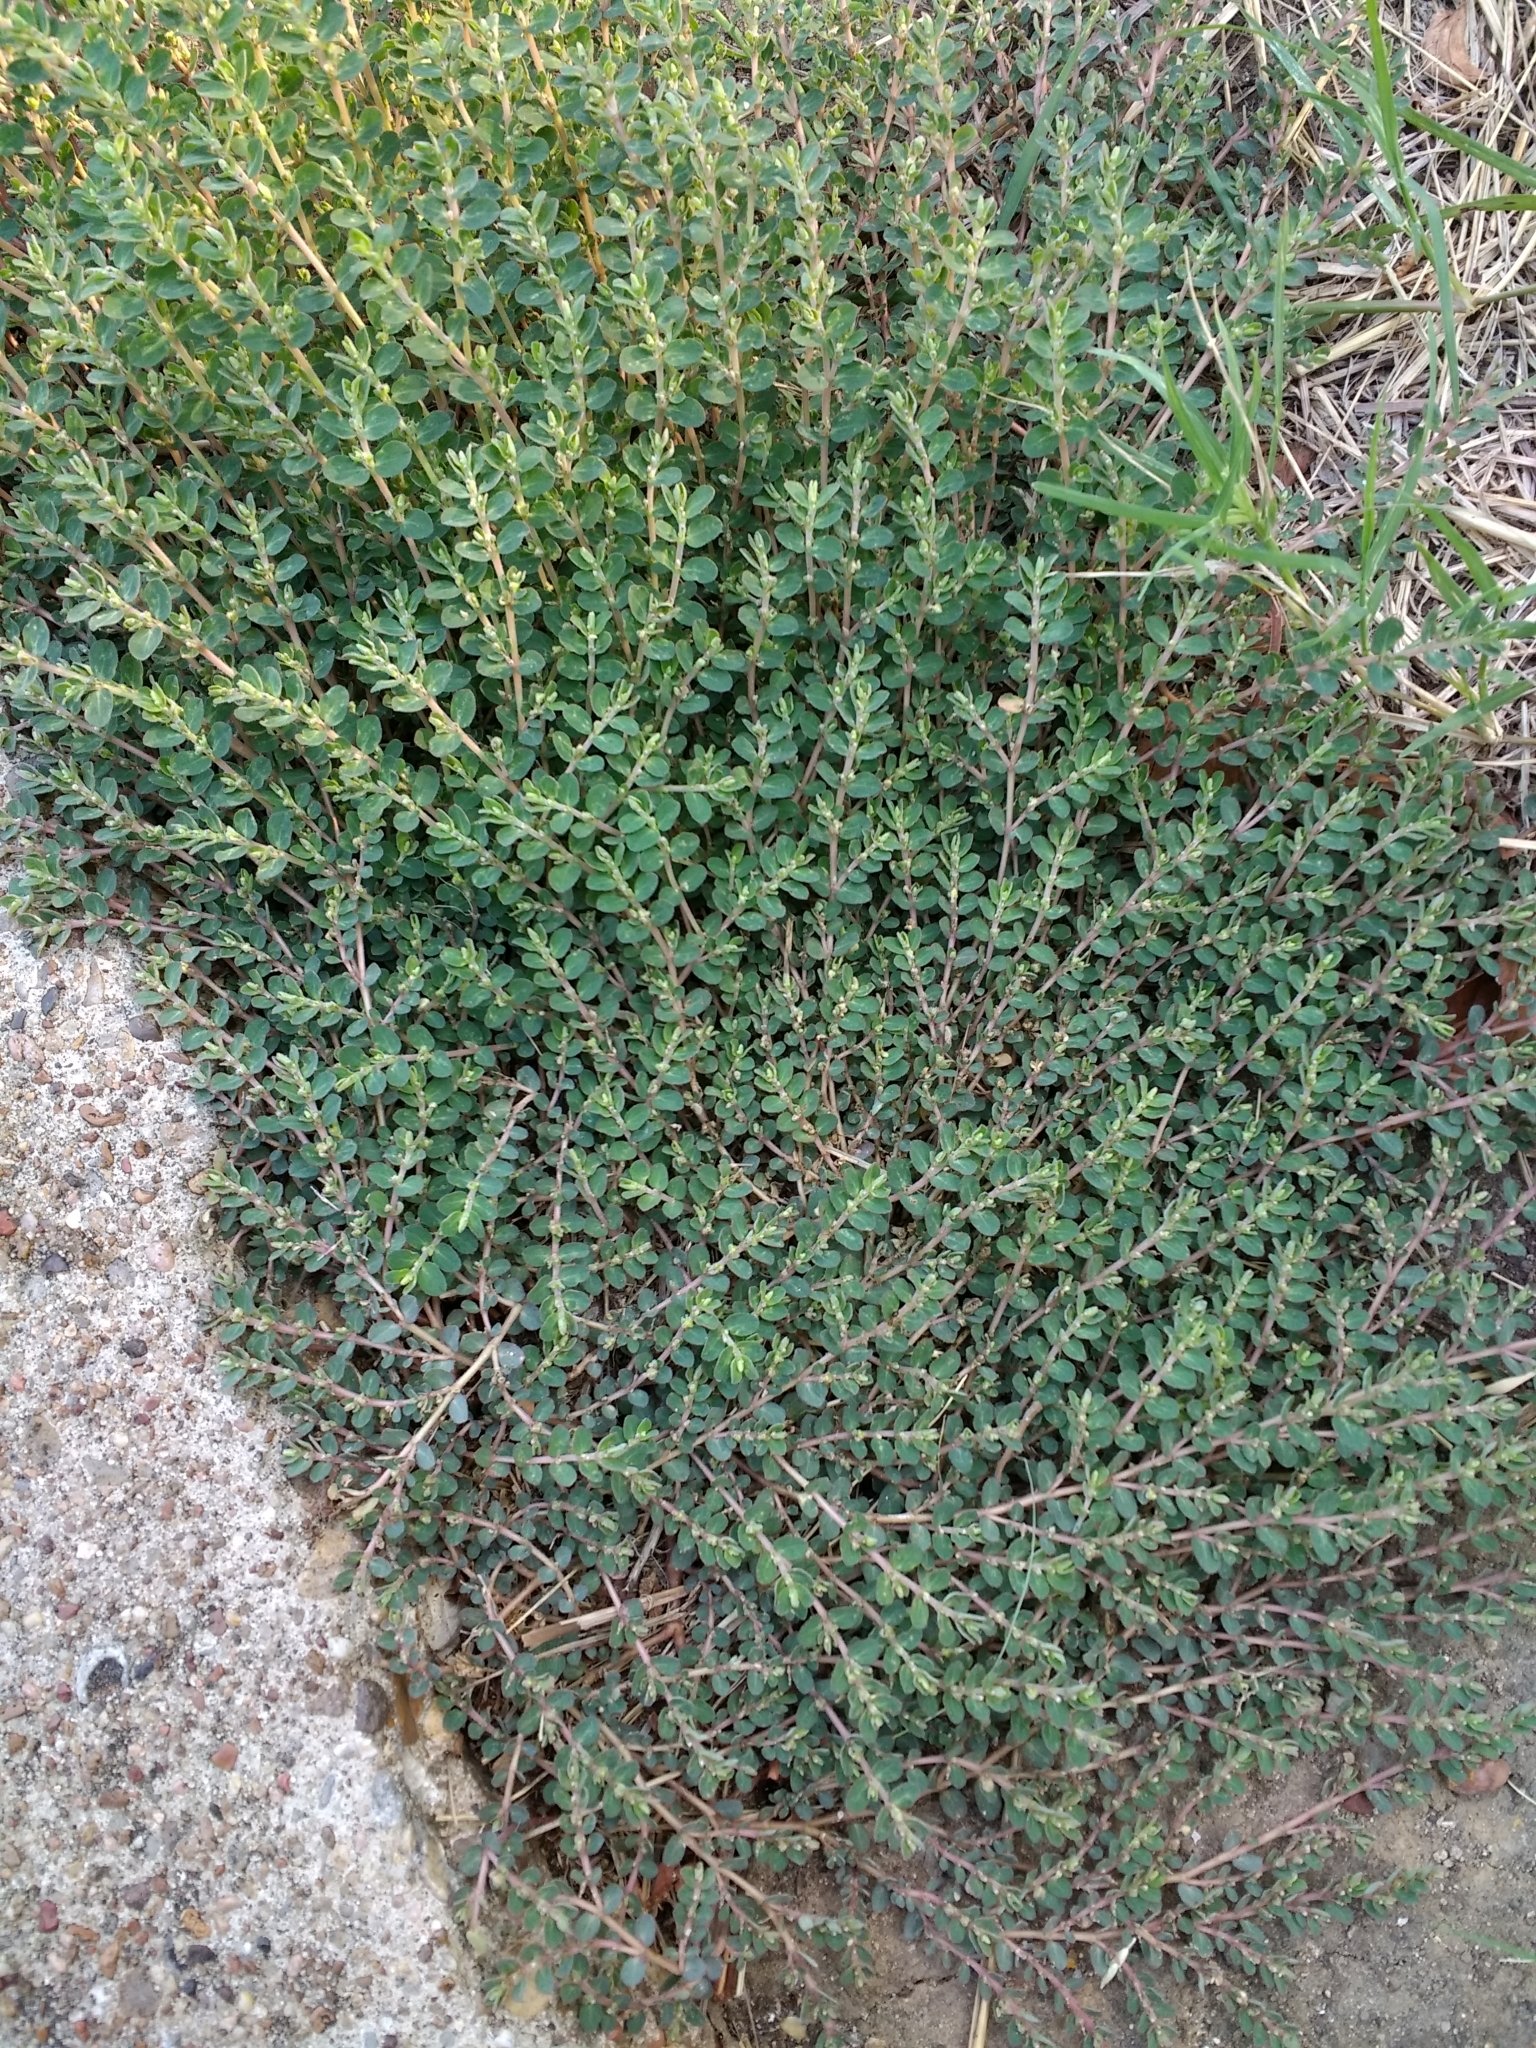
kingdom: Plantae
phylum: Tracheophyta
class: Magnoliopsida
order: Malpighiales
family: Euphorbiaceae
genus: Euphorbia
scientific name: Euphorbia prostrata
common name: Prostrate sandmat
